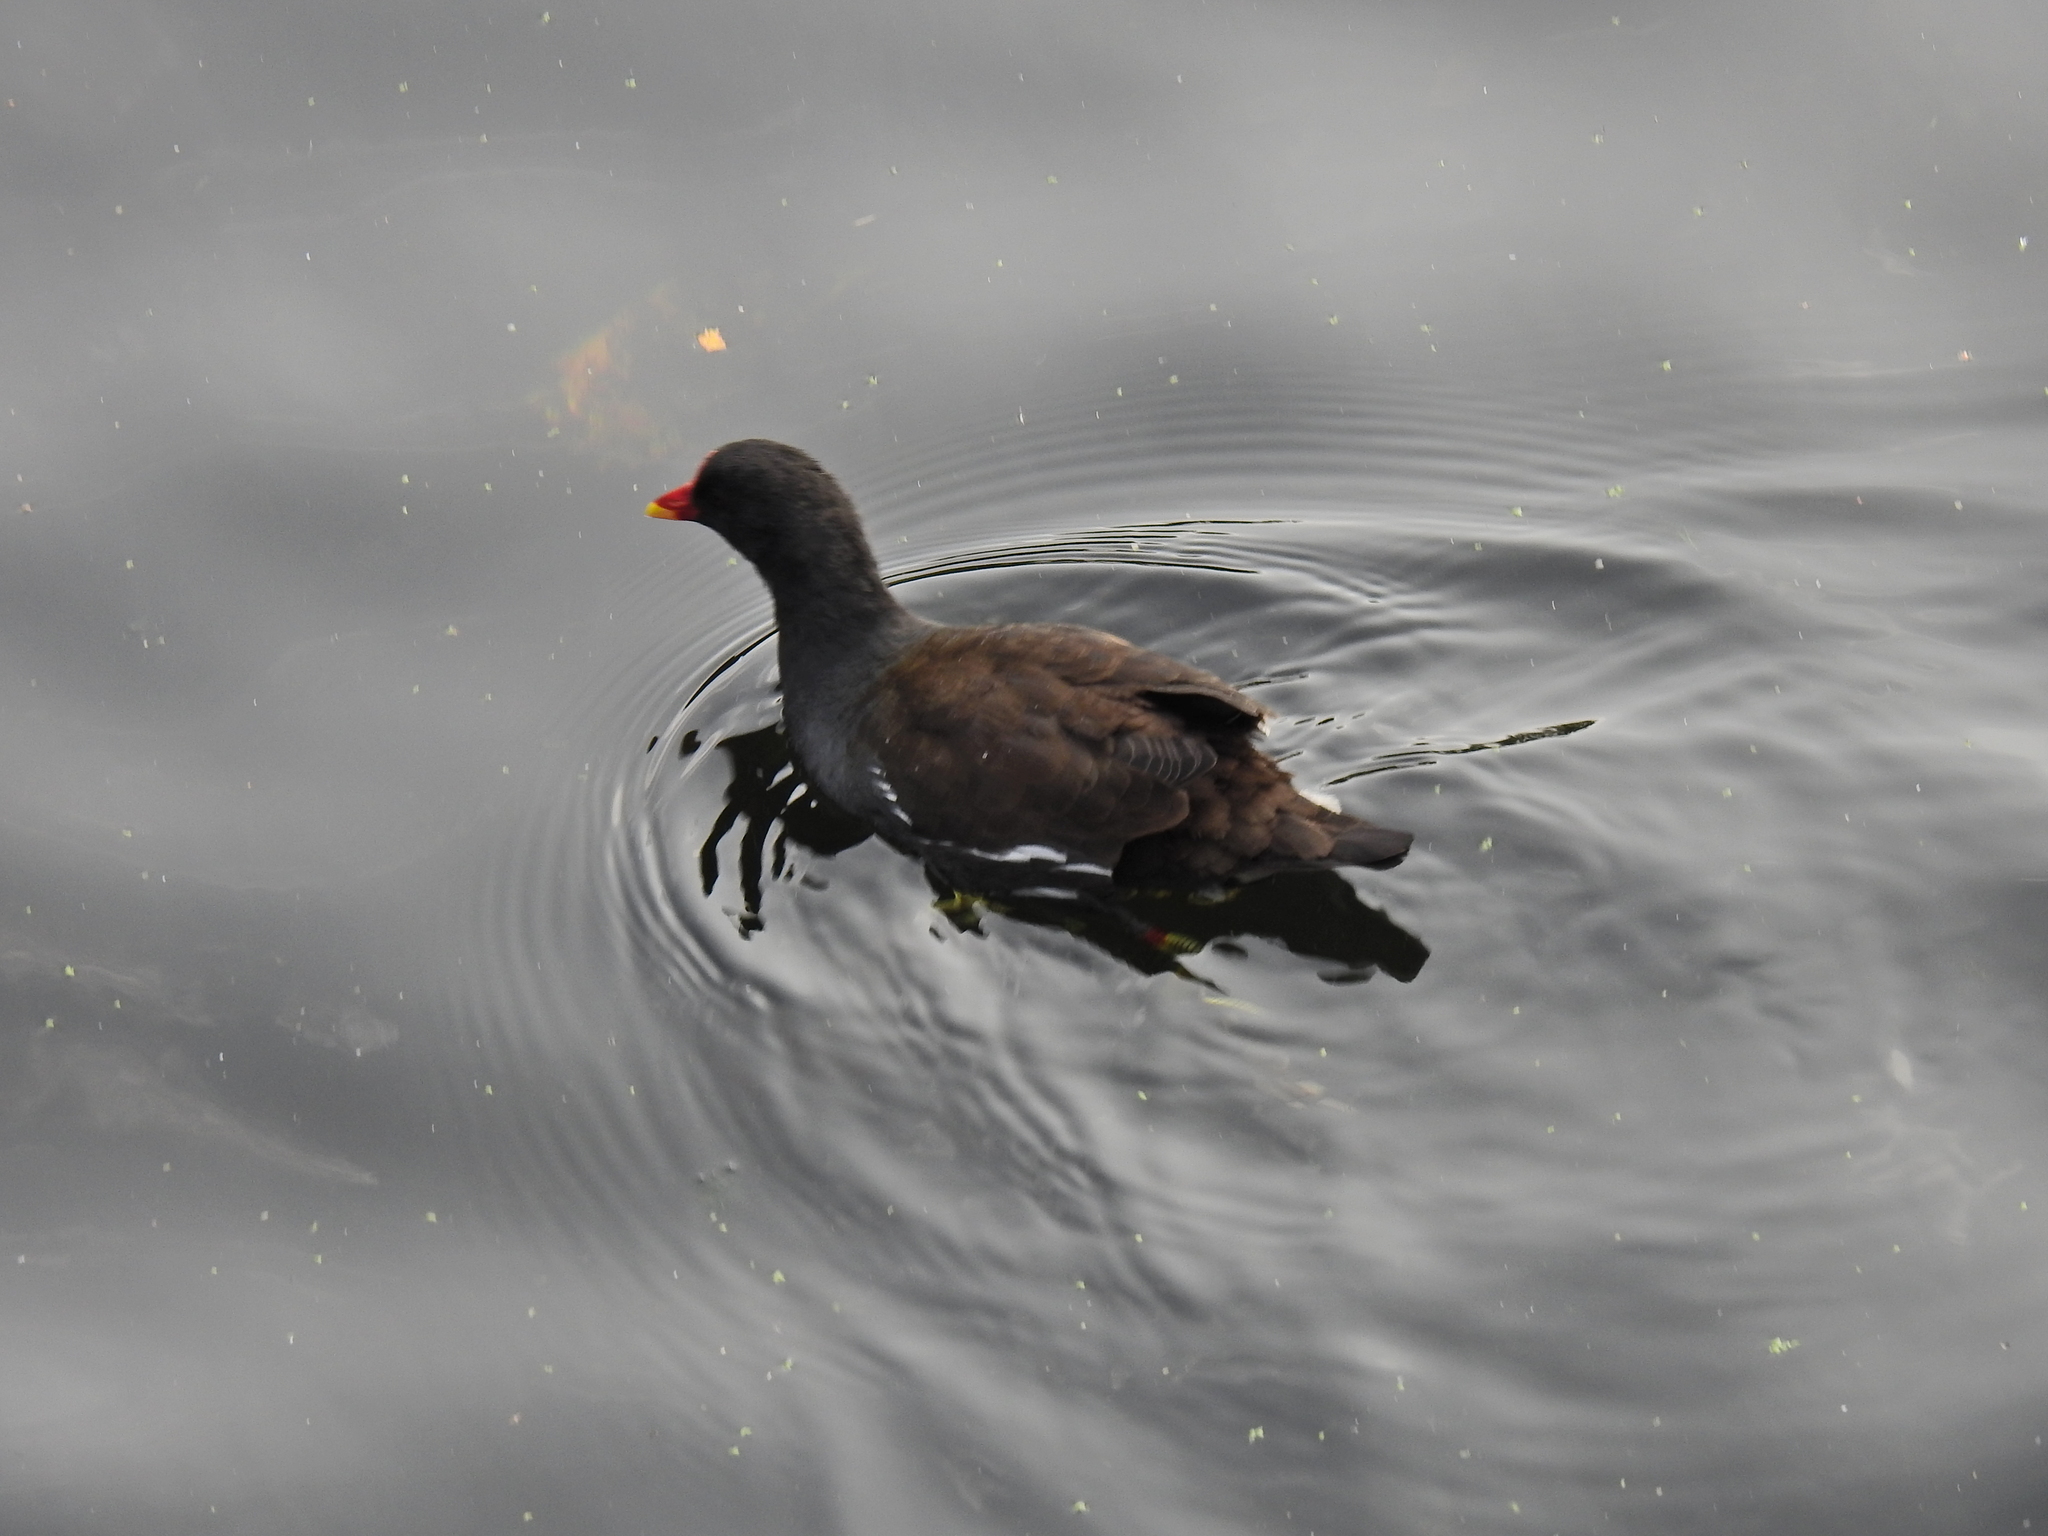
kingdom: Animalia
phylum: Chordata
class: Aves
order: Gruiformes
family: Rallidae
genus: Gallinula
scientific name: Gallinula chloropus
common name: Common moorhen
